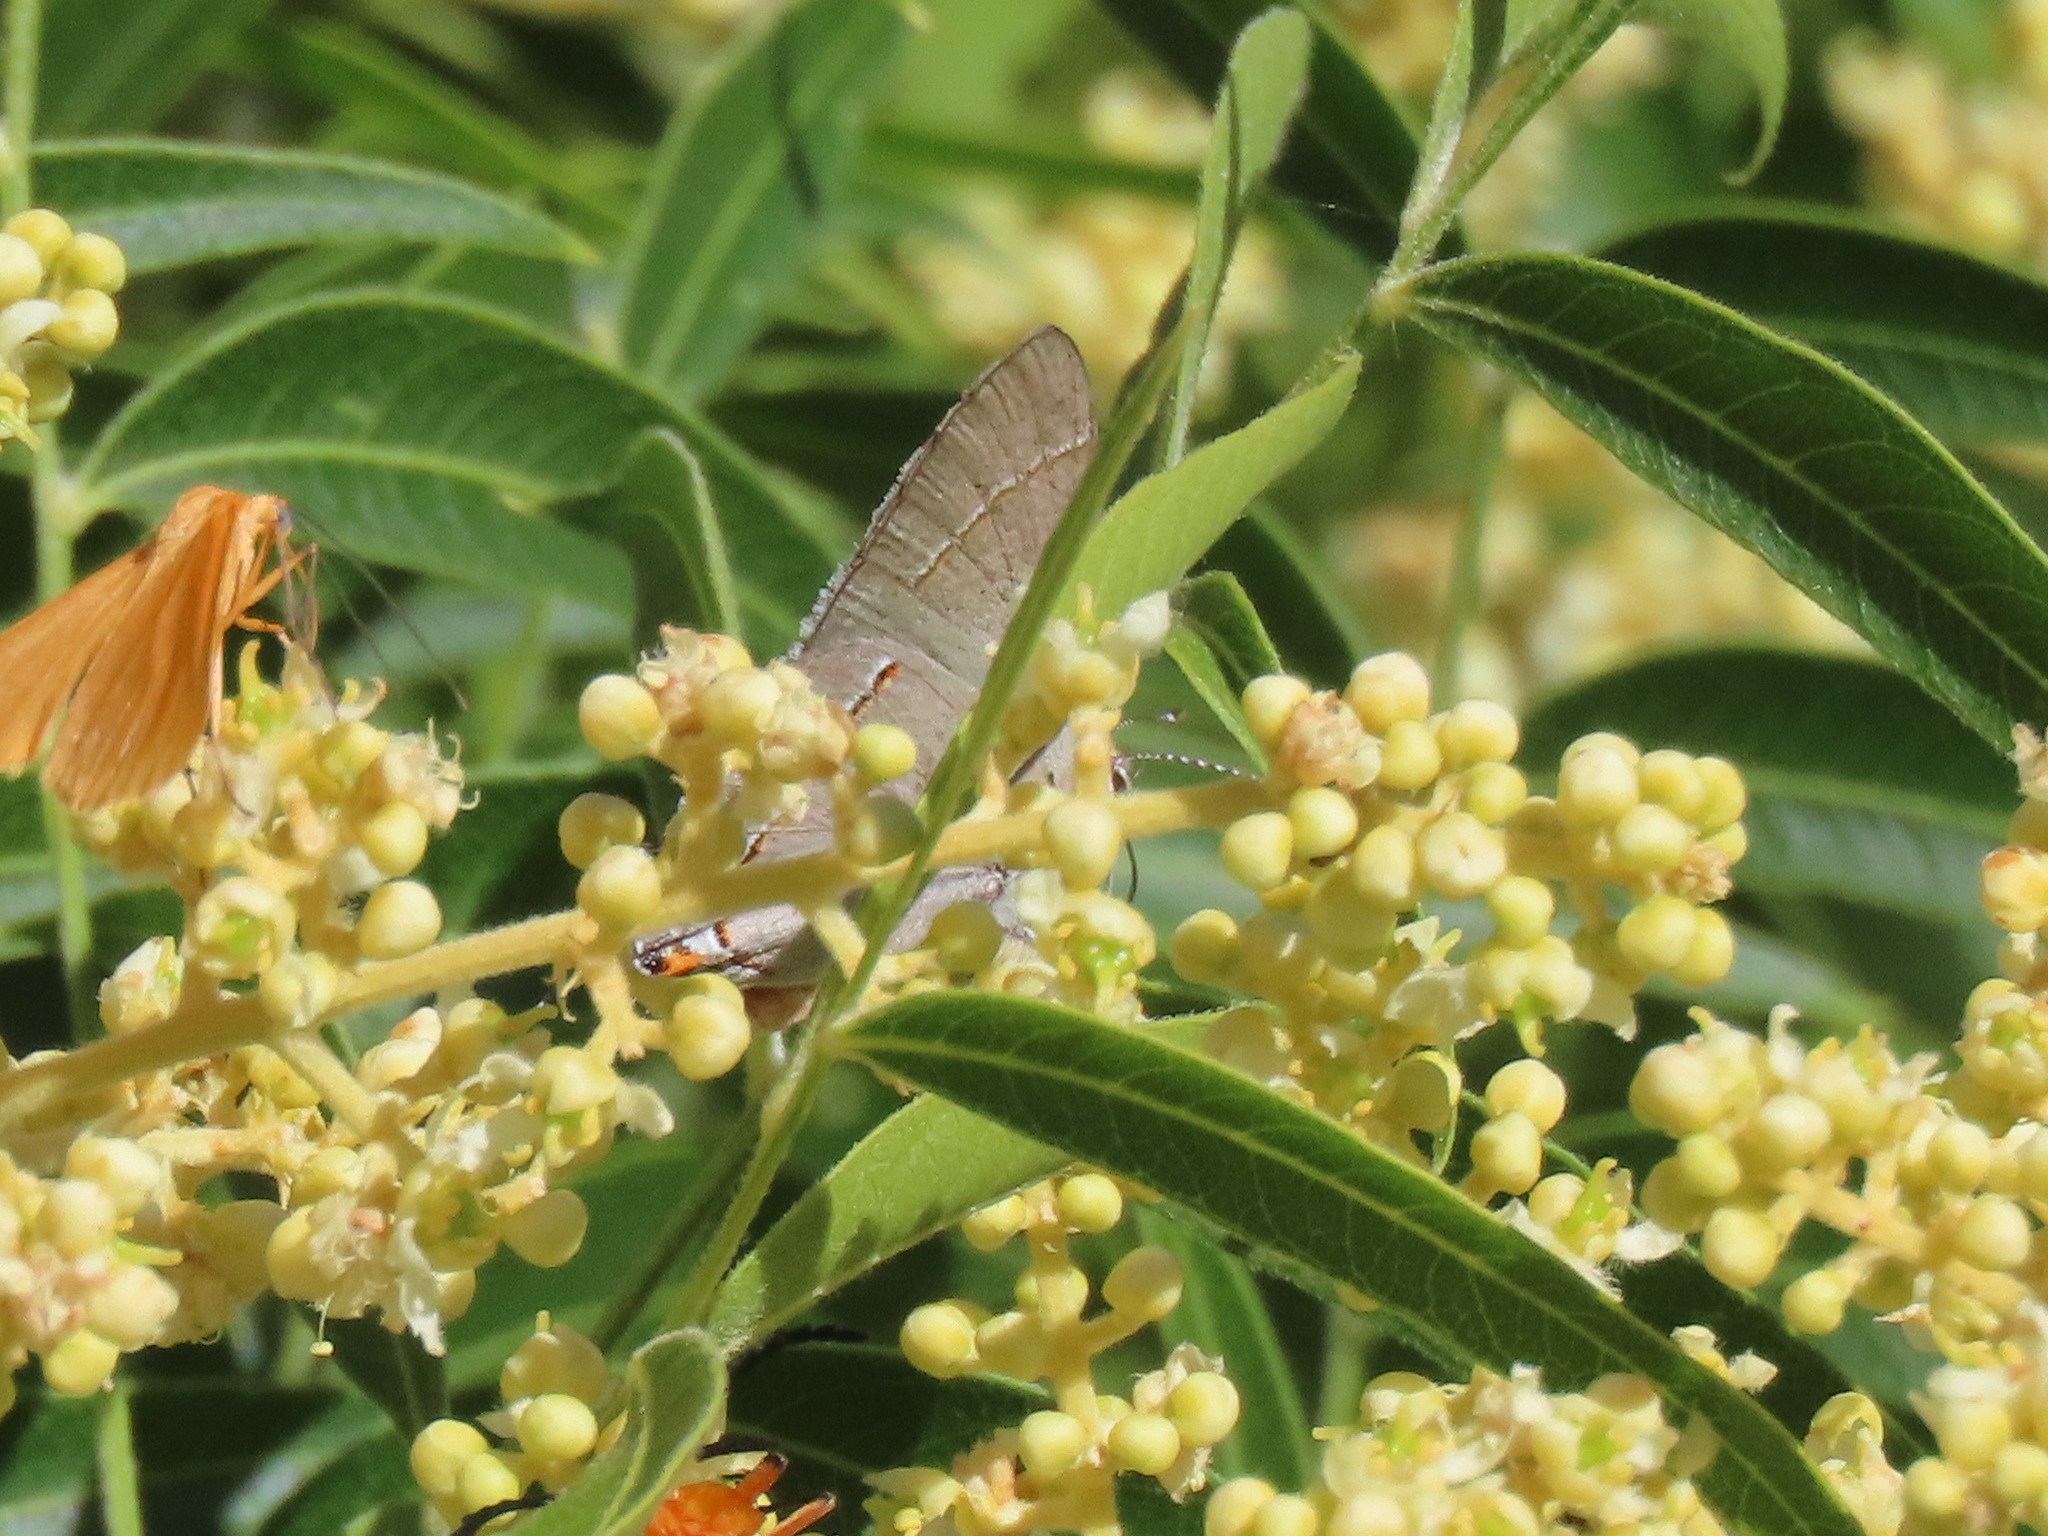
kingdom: Animalia
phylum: Arthropoda
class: Insecta
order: Lepidoptera
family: Lycaenidae
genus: Strymon
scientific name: Strymon melinus
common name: Gray hairstreak
